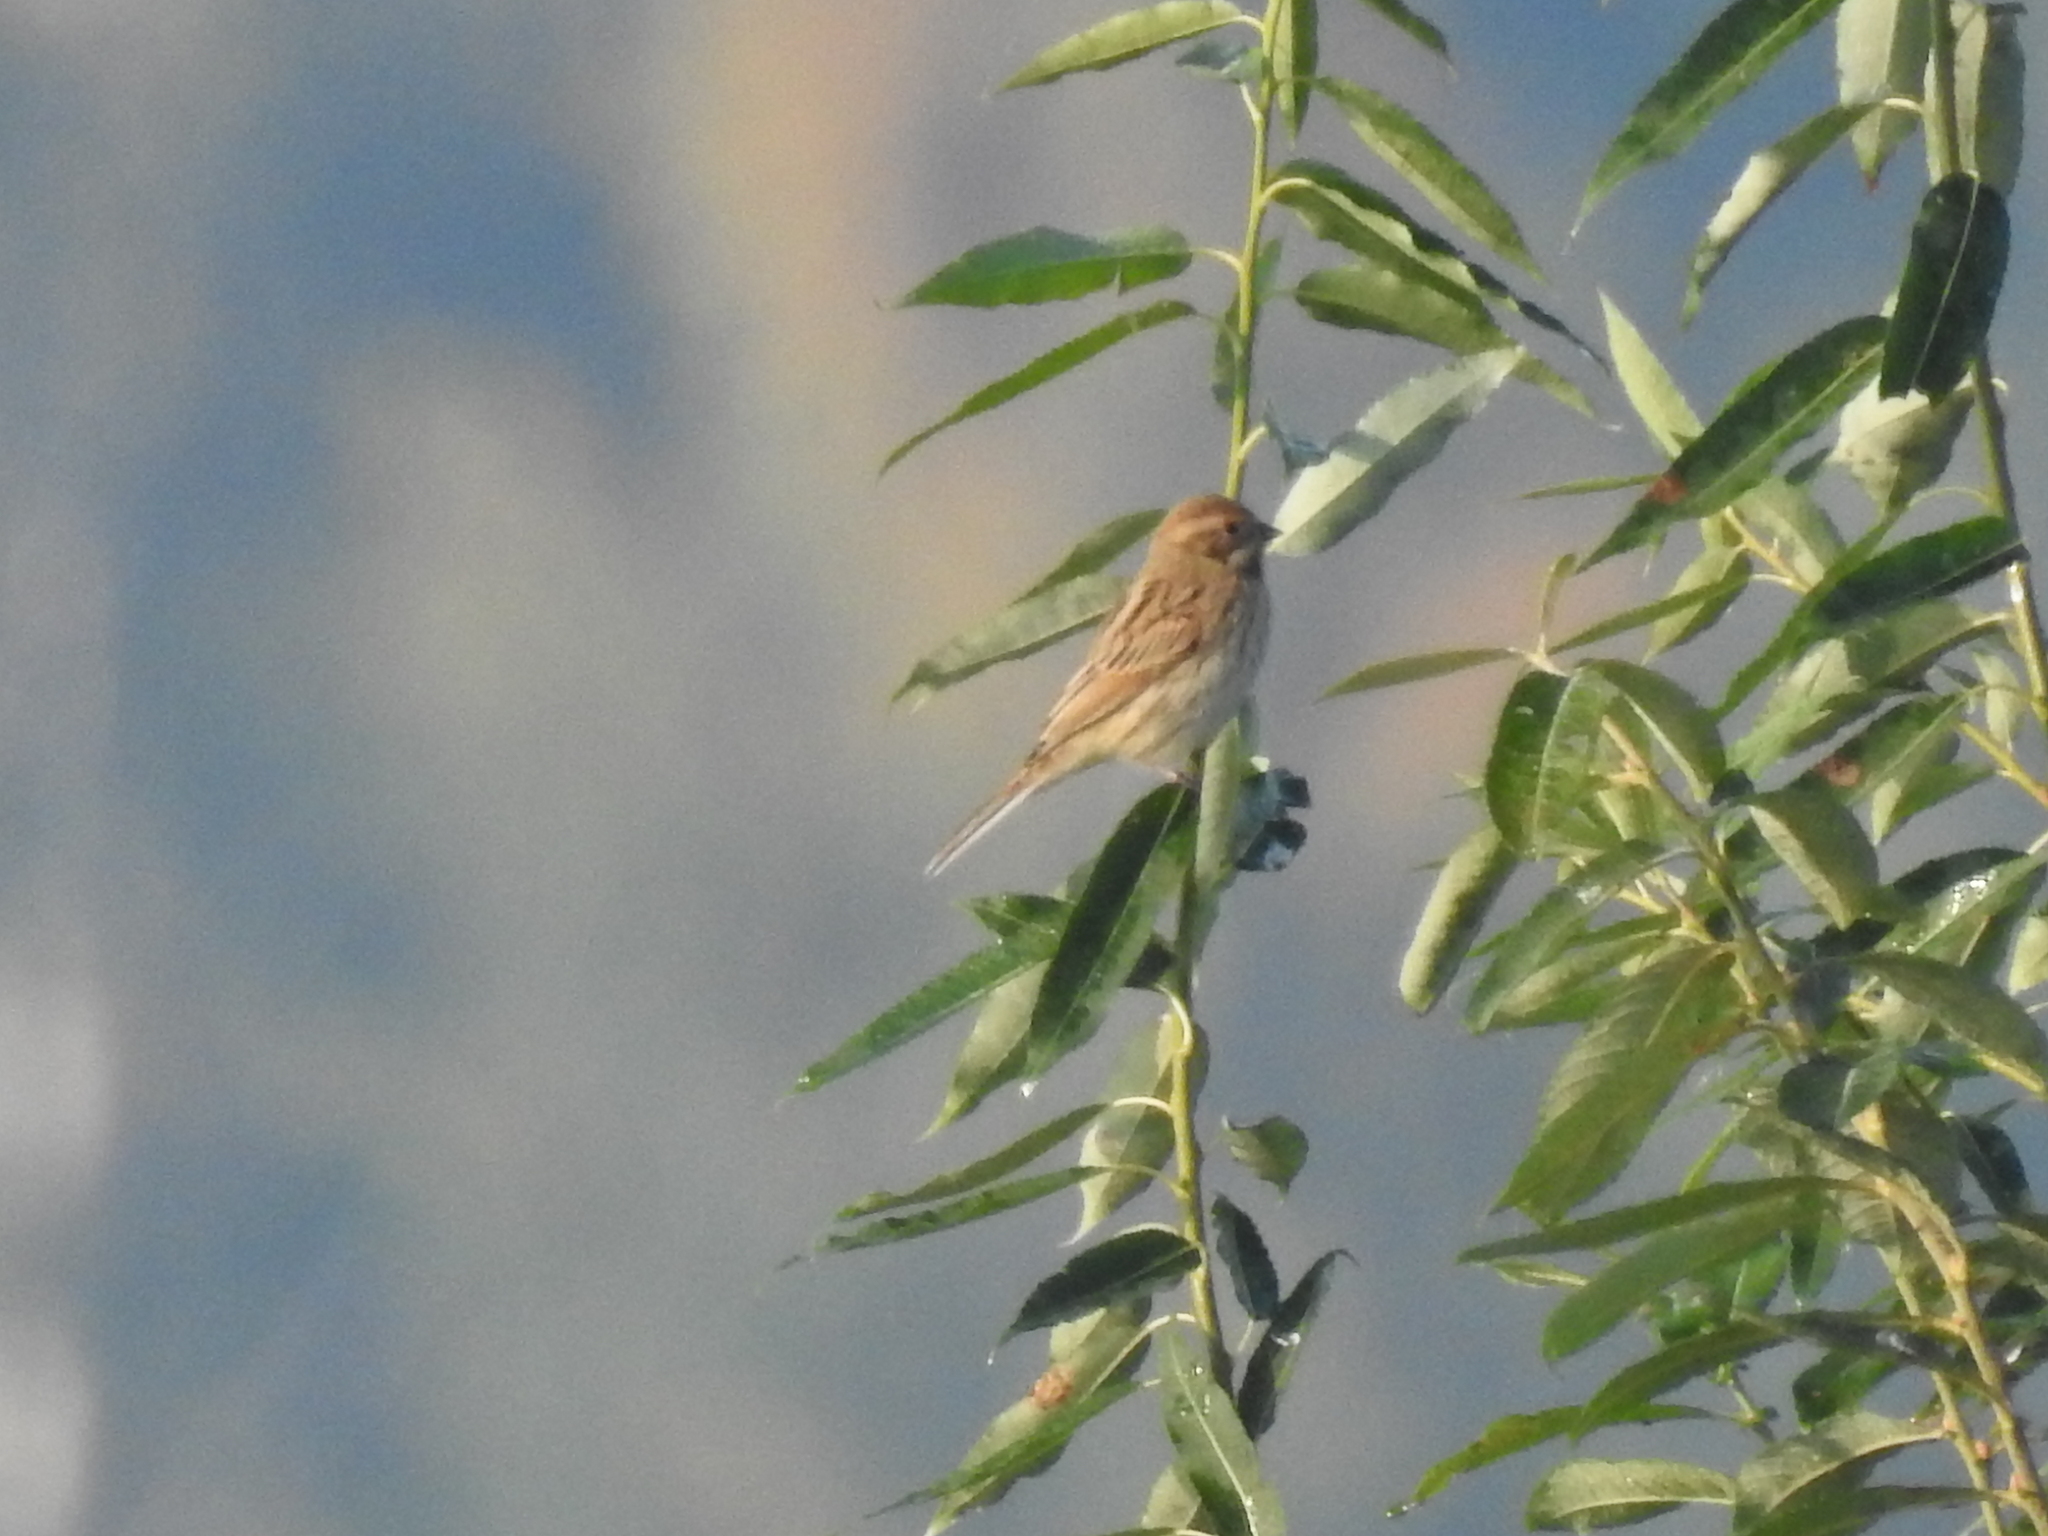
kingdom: Animalia
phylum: Chordata
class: Aves
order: Passeriformes
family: Emberizidae
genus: Emberiza
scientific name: Emberiza schoeniclus
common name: Reed bunting
